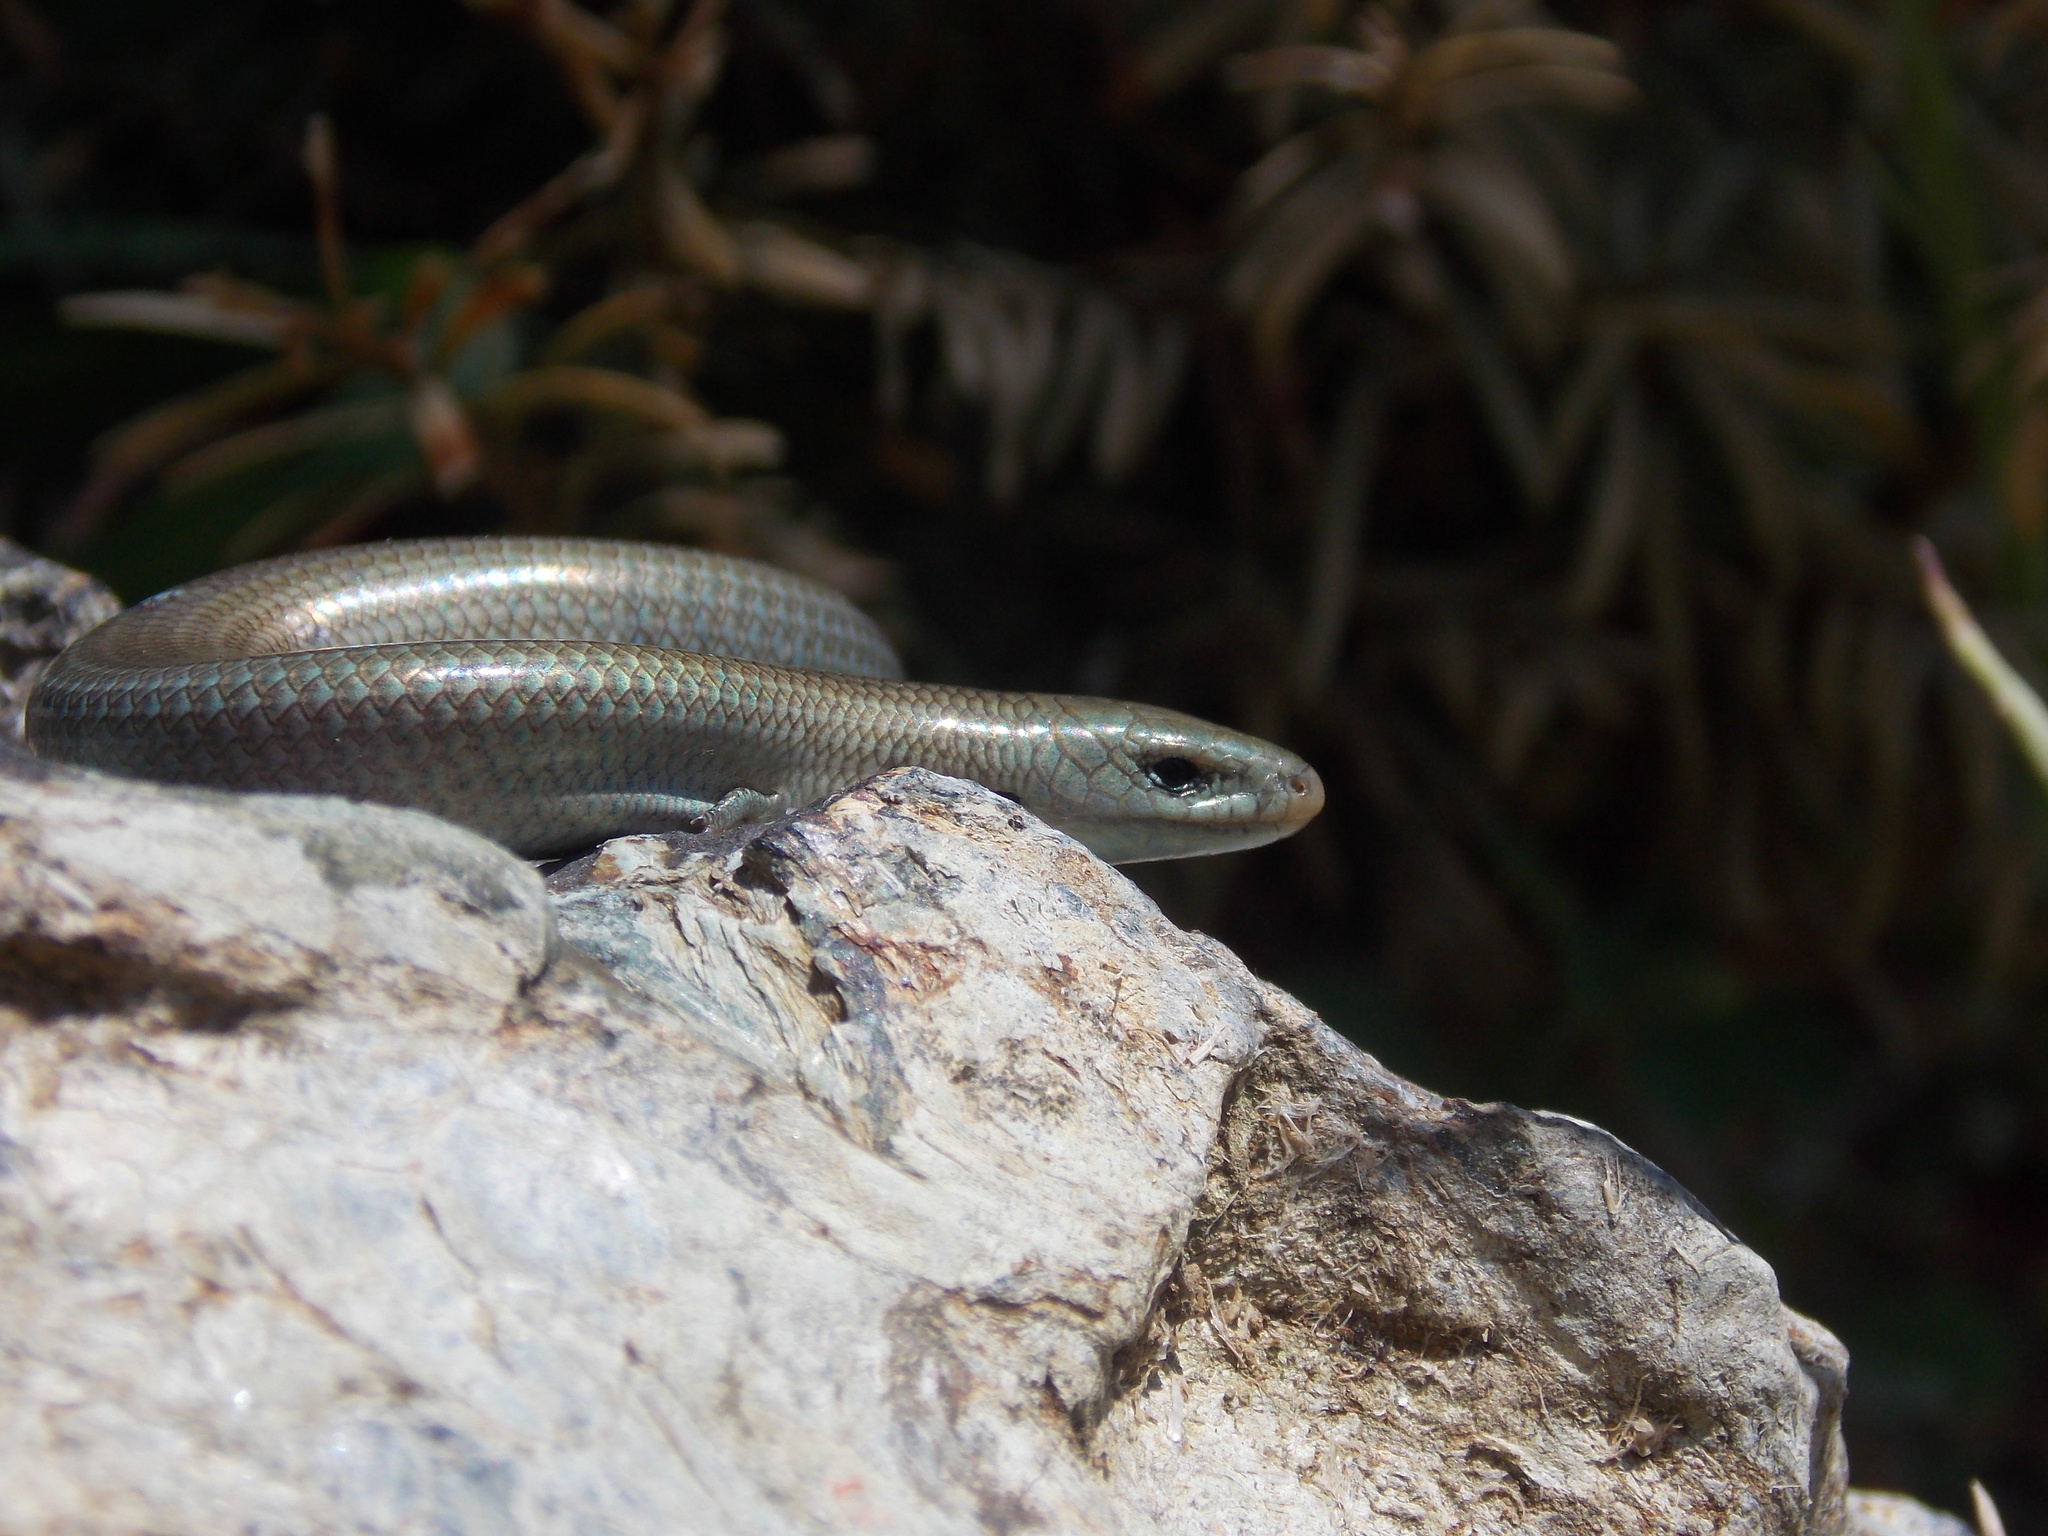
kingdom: Animalia
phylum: Chordata
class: Squamata
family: Scincidae
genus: Chalcides
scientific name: Chalcides chalcides
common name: Italian three-toed skink
